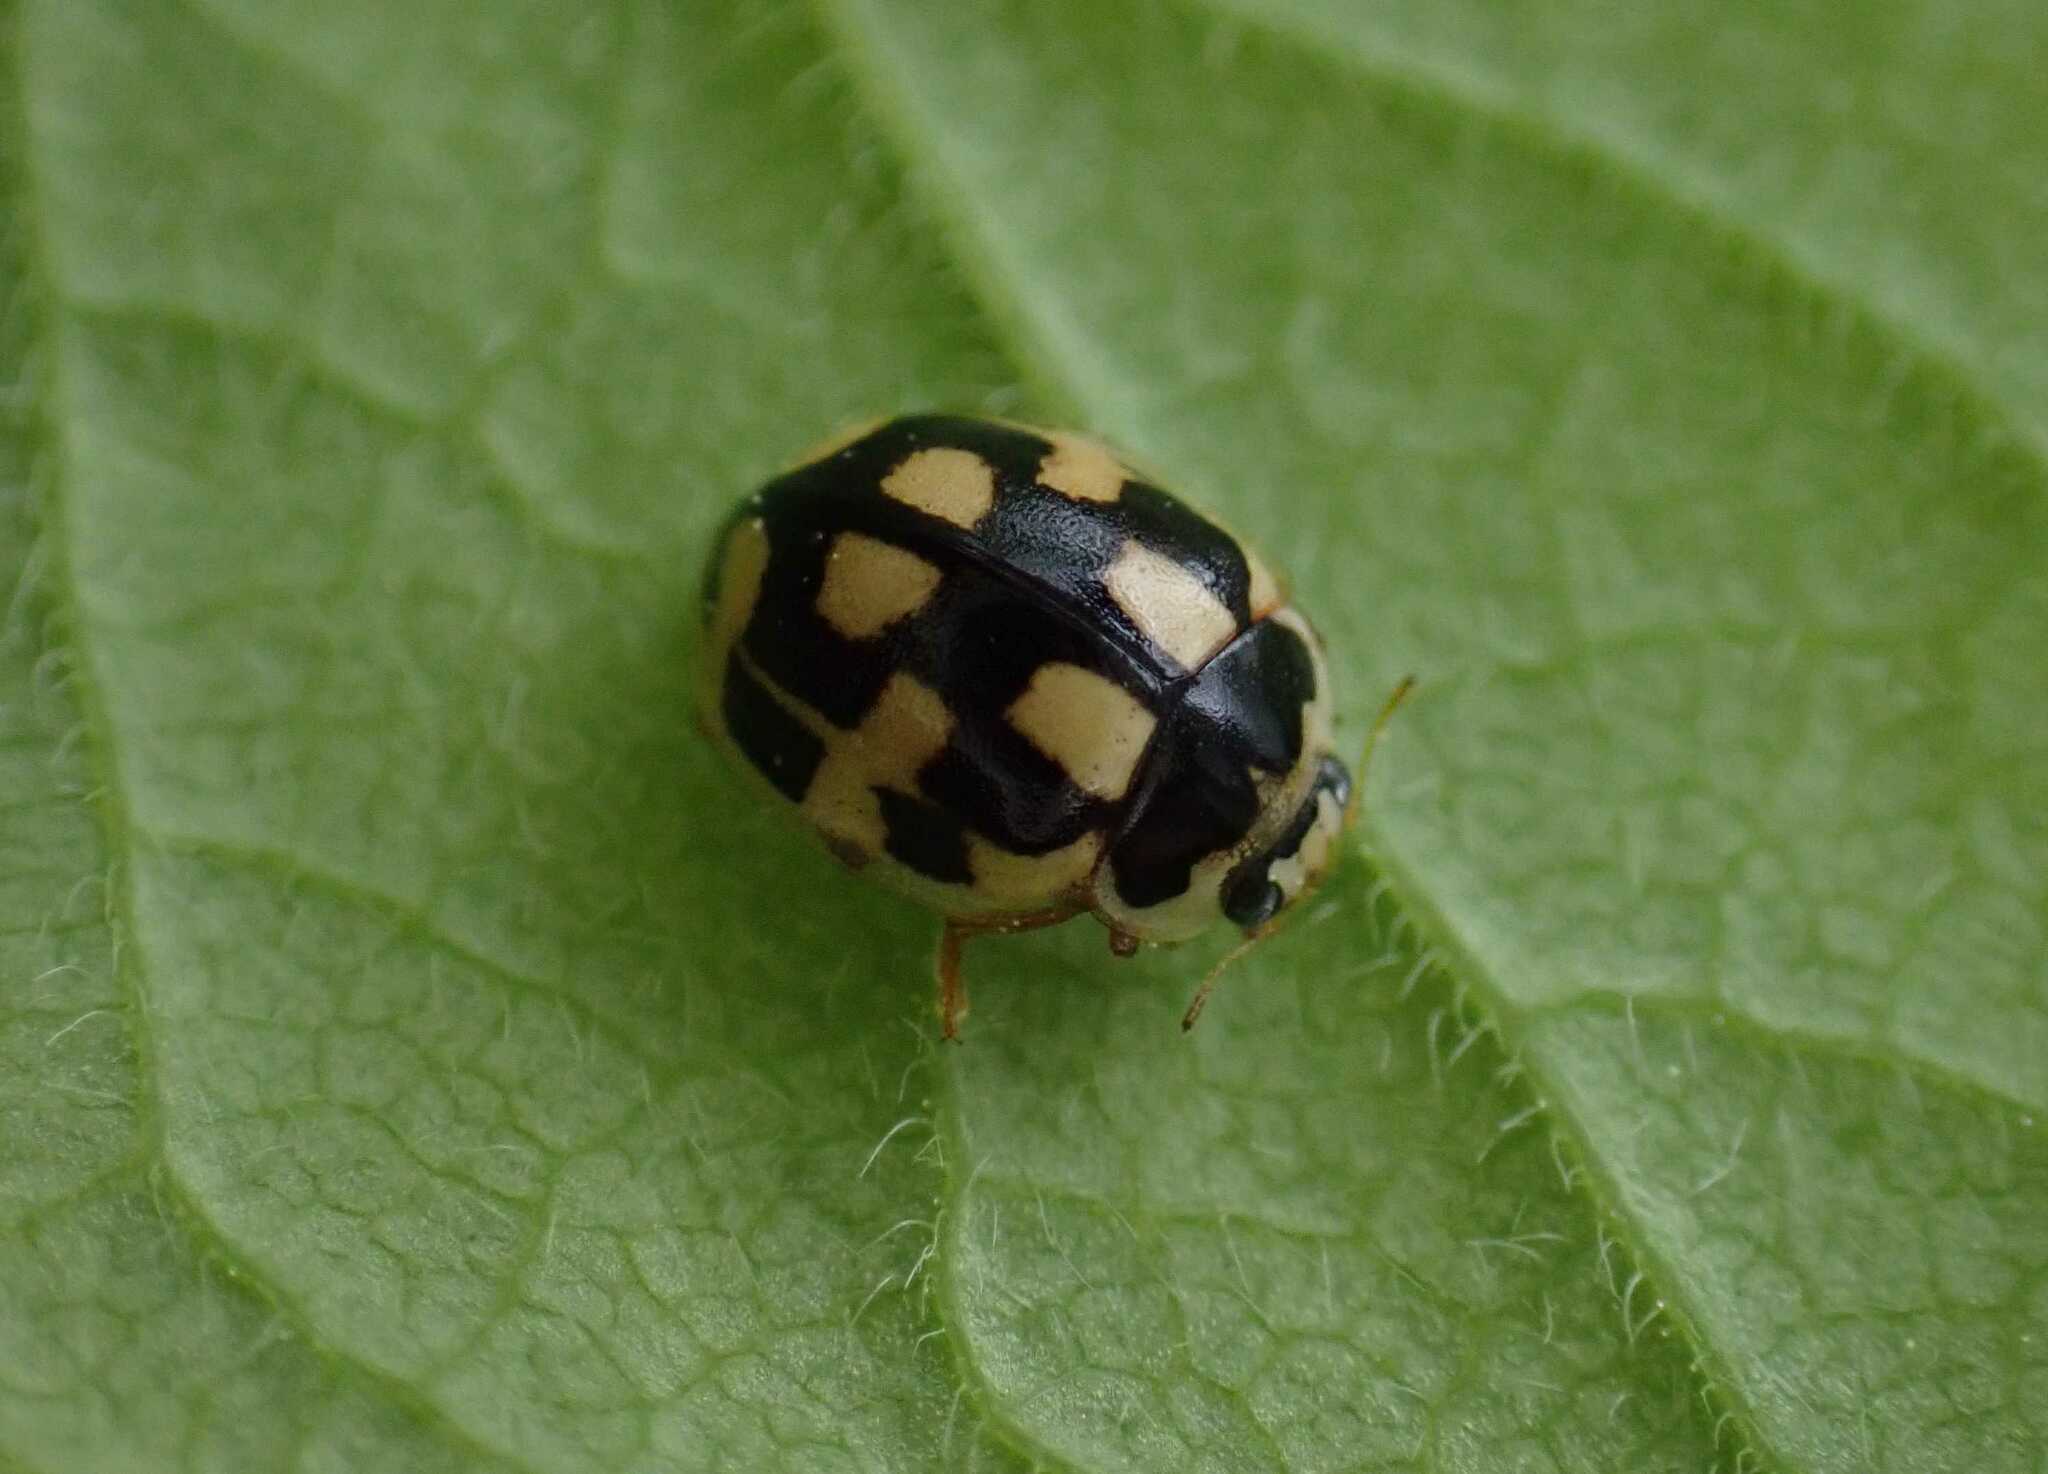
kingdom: Animalia
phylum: Arthropoda
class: Insecta
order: Coleoptera
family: Coccinellidae
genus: Propylaea
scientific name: Propylaea quatuordecimpunctata
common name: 14-spotted ladybird beetle
